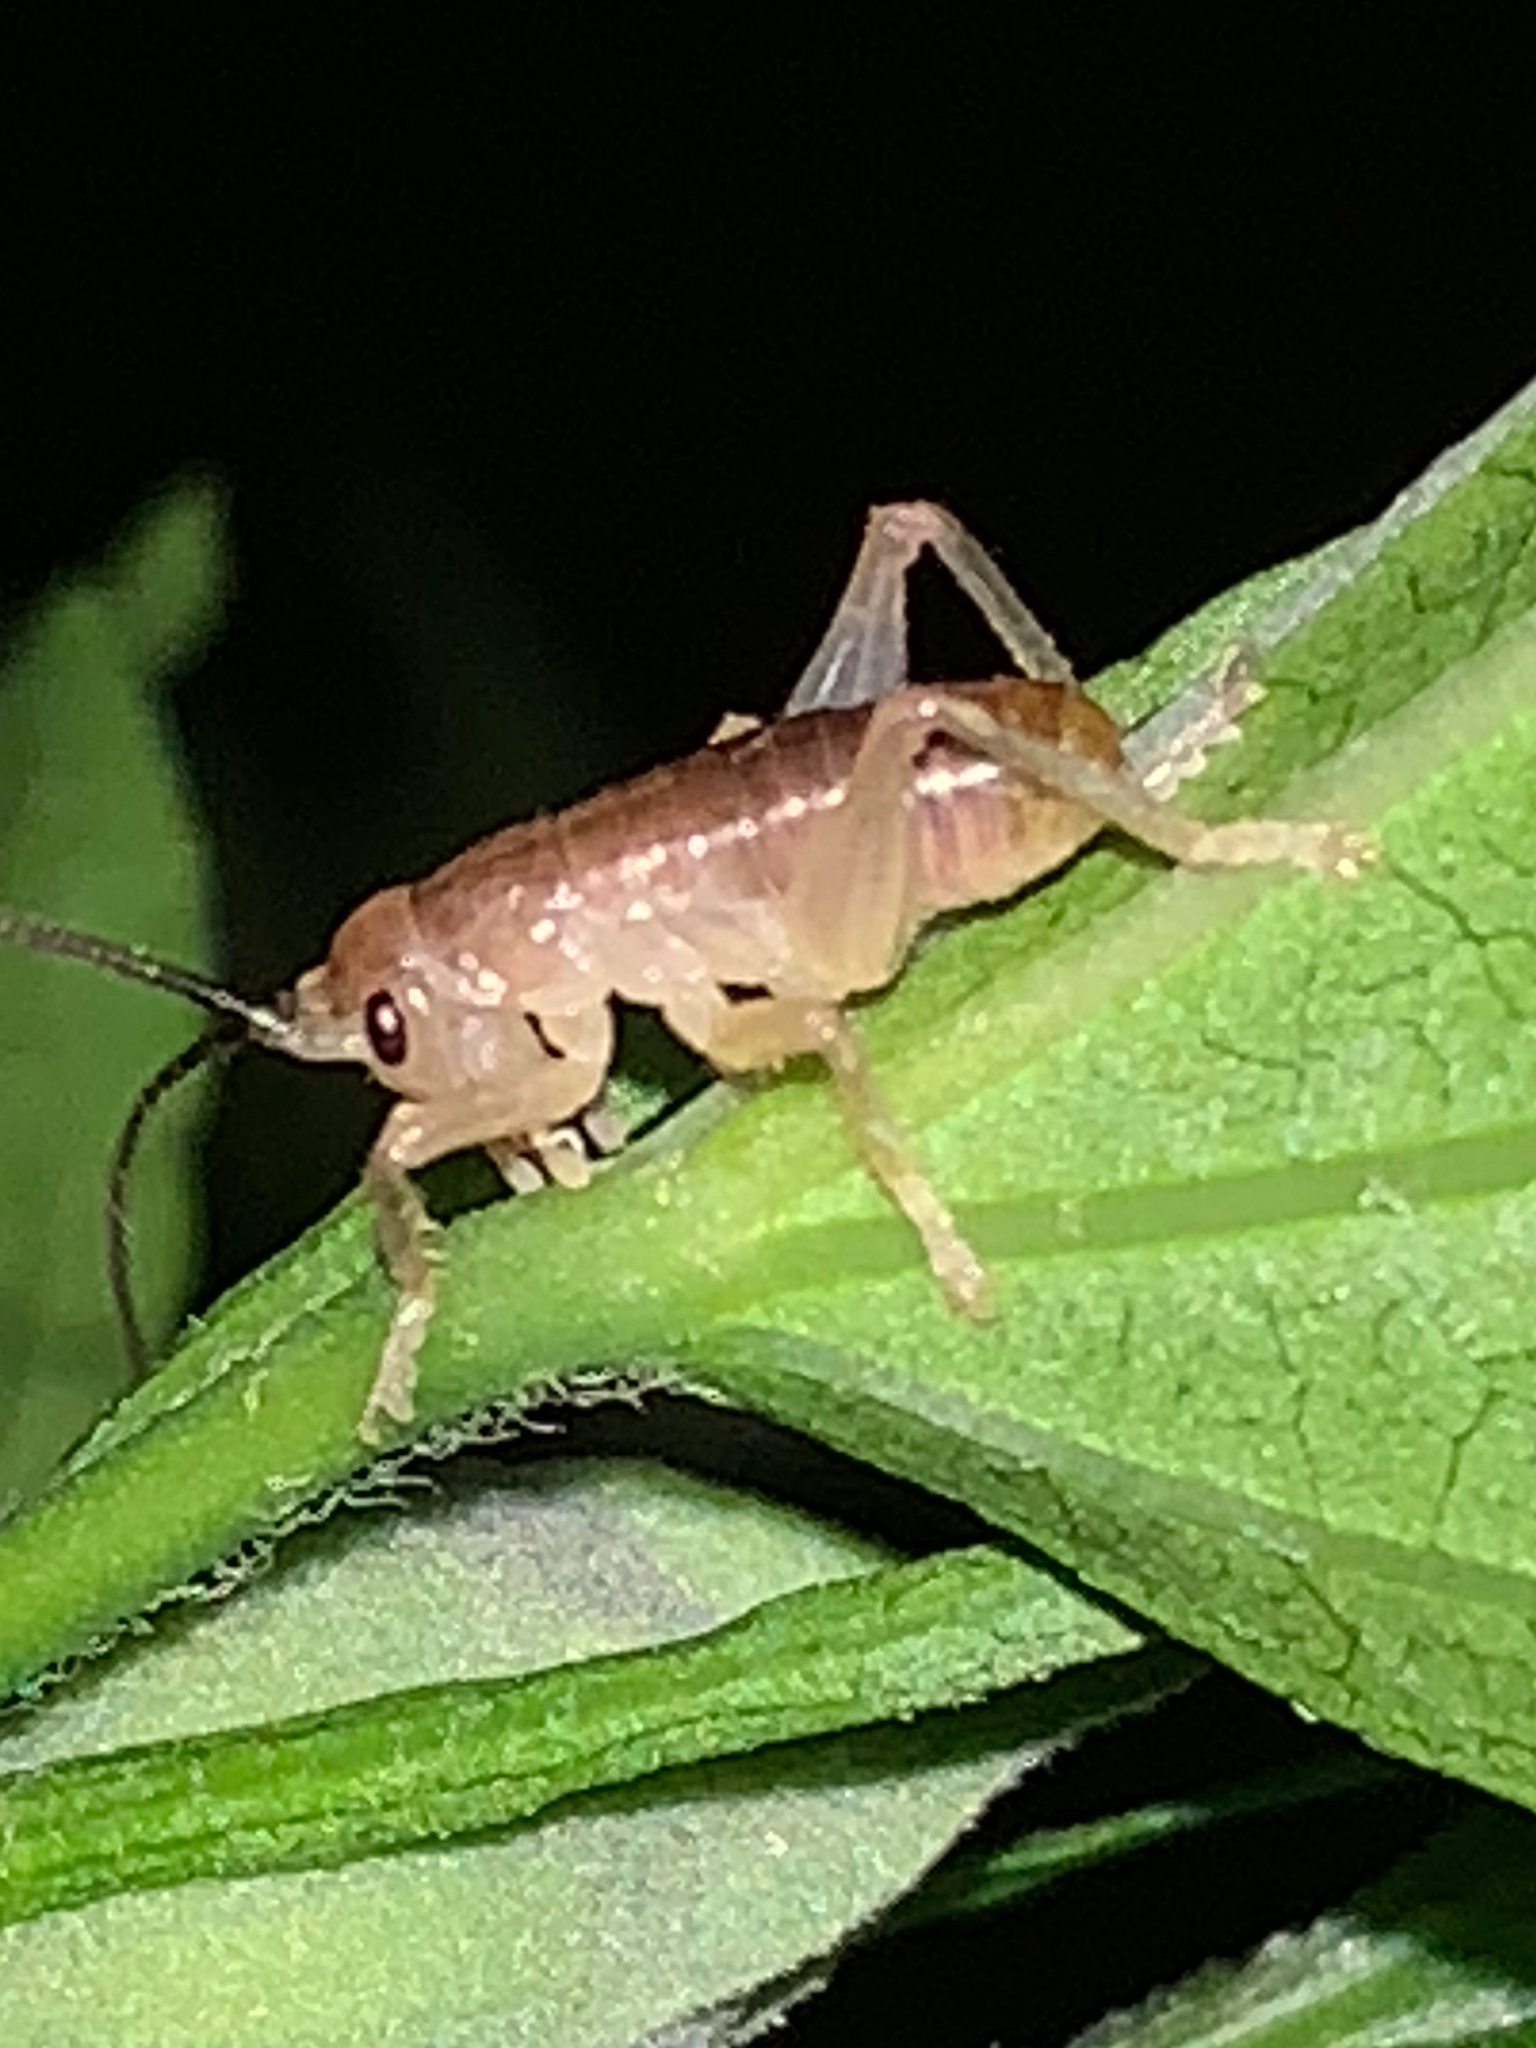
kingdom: Animalia
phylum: Arthropoda
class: Insecta
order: Orthoptera
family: Gryllacrididae
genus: Camptonotus
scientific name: Camptonotus carolinensis
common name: Carolina leaf-roller
